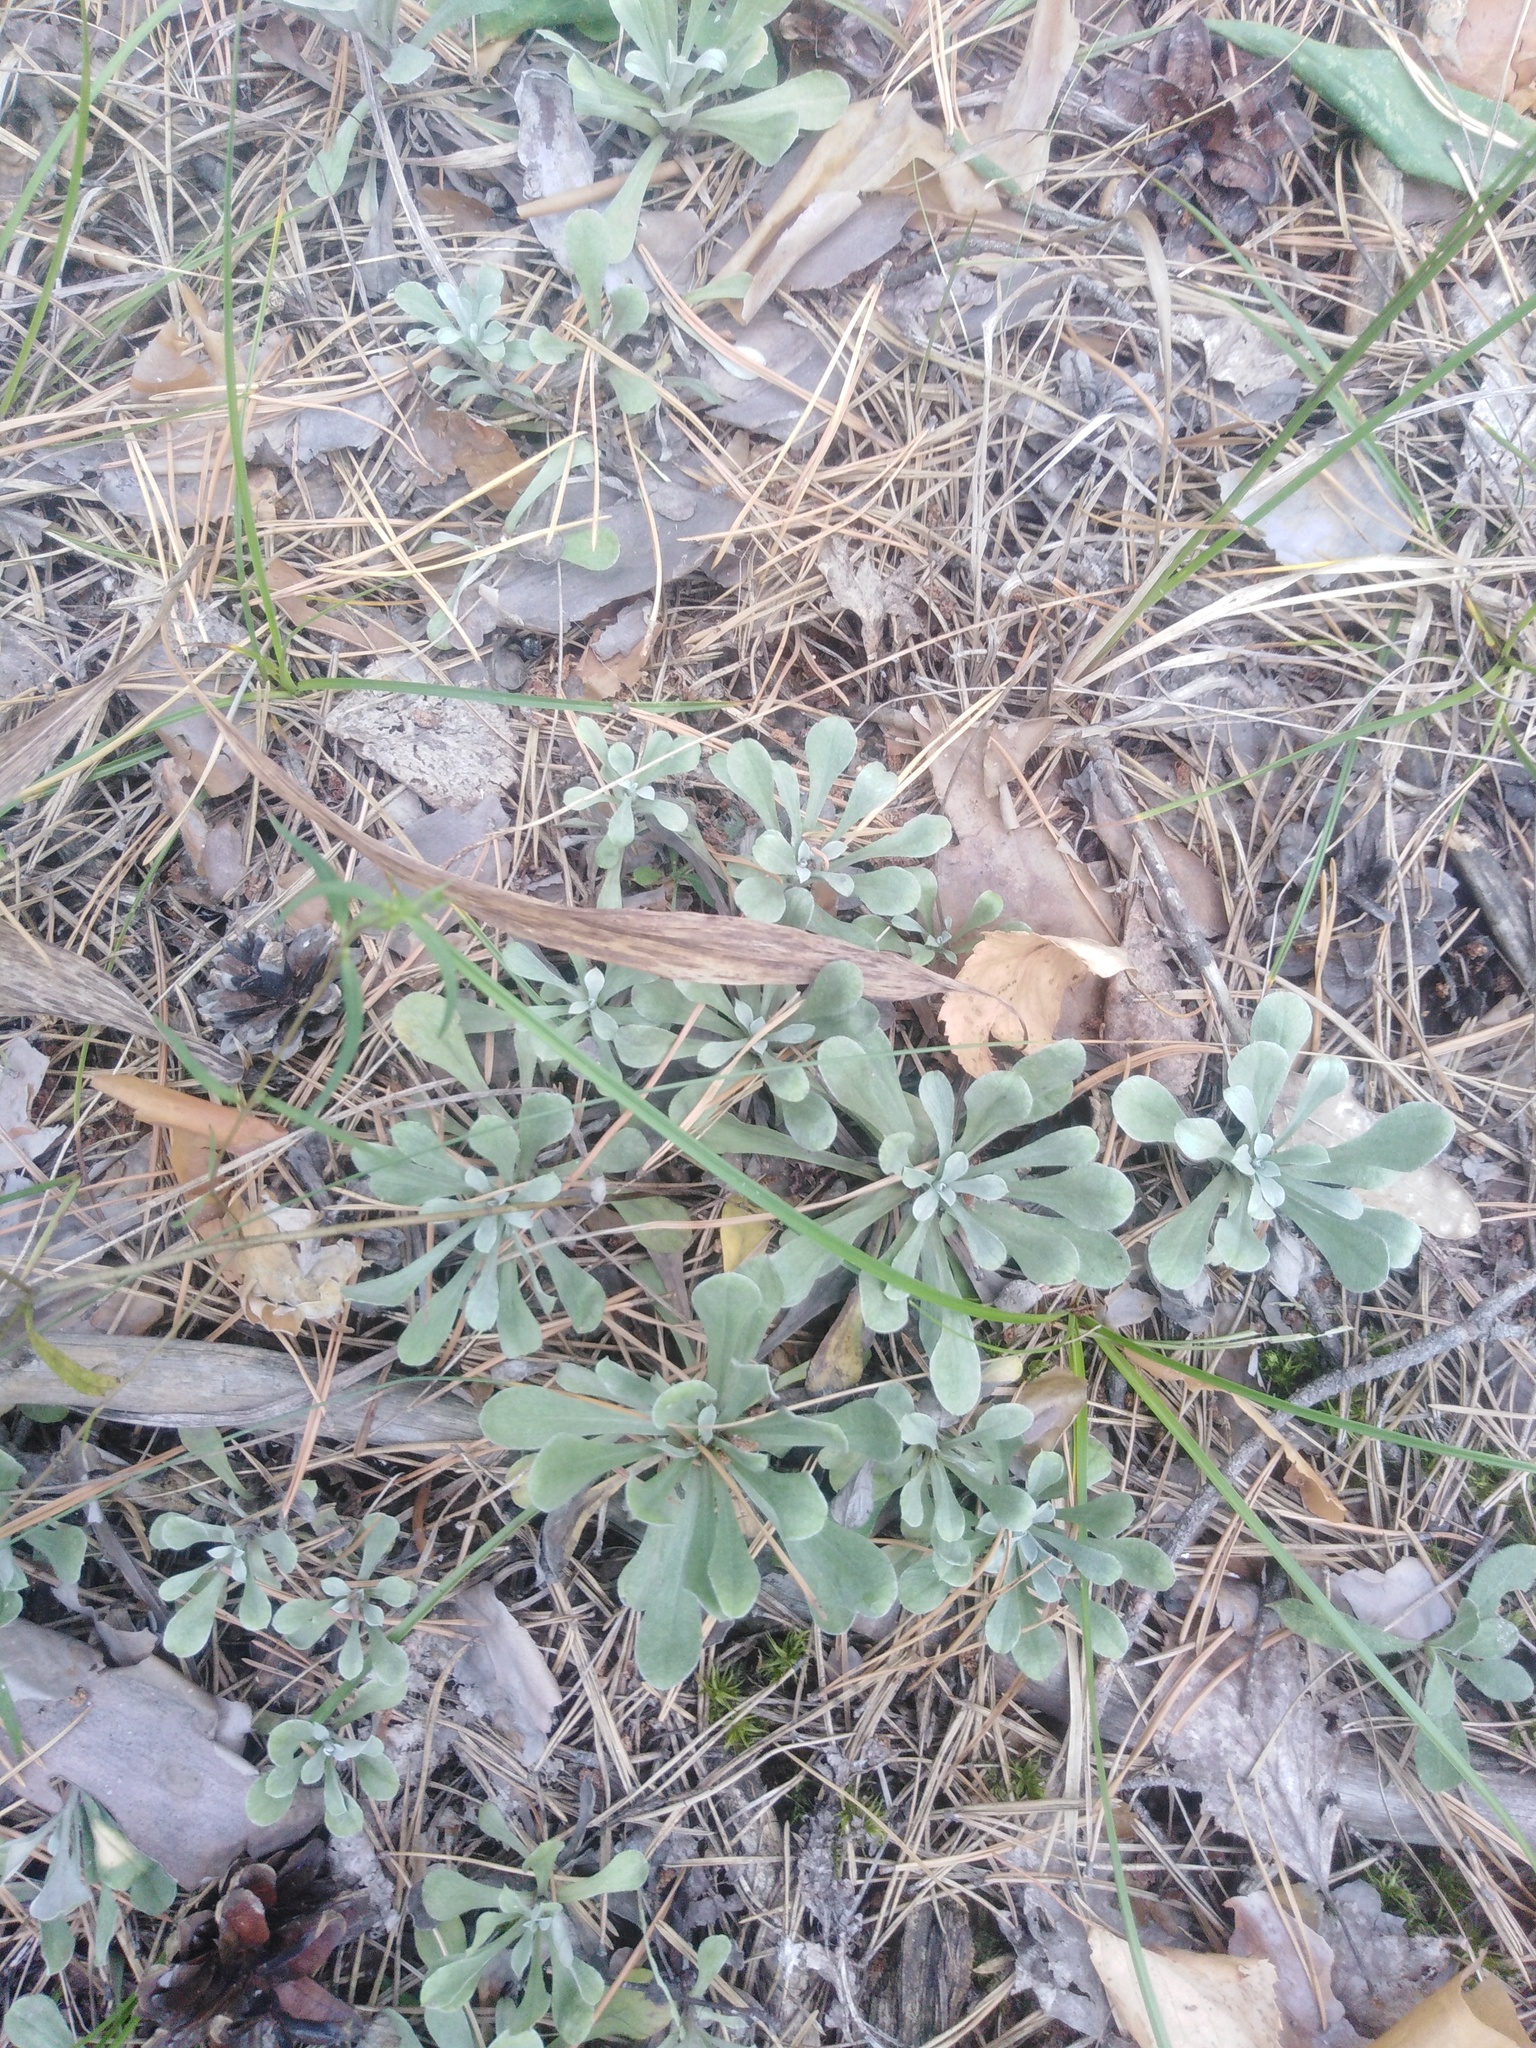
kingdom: Plantae
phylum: Tracheophyta
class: Magnoliopsida
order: Asterales
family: Asteraceae
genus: Antennaria
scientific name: Antennaria dioica
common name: Mountain everlasting
